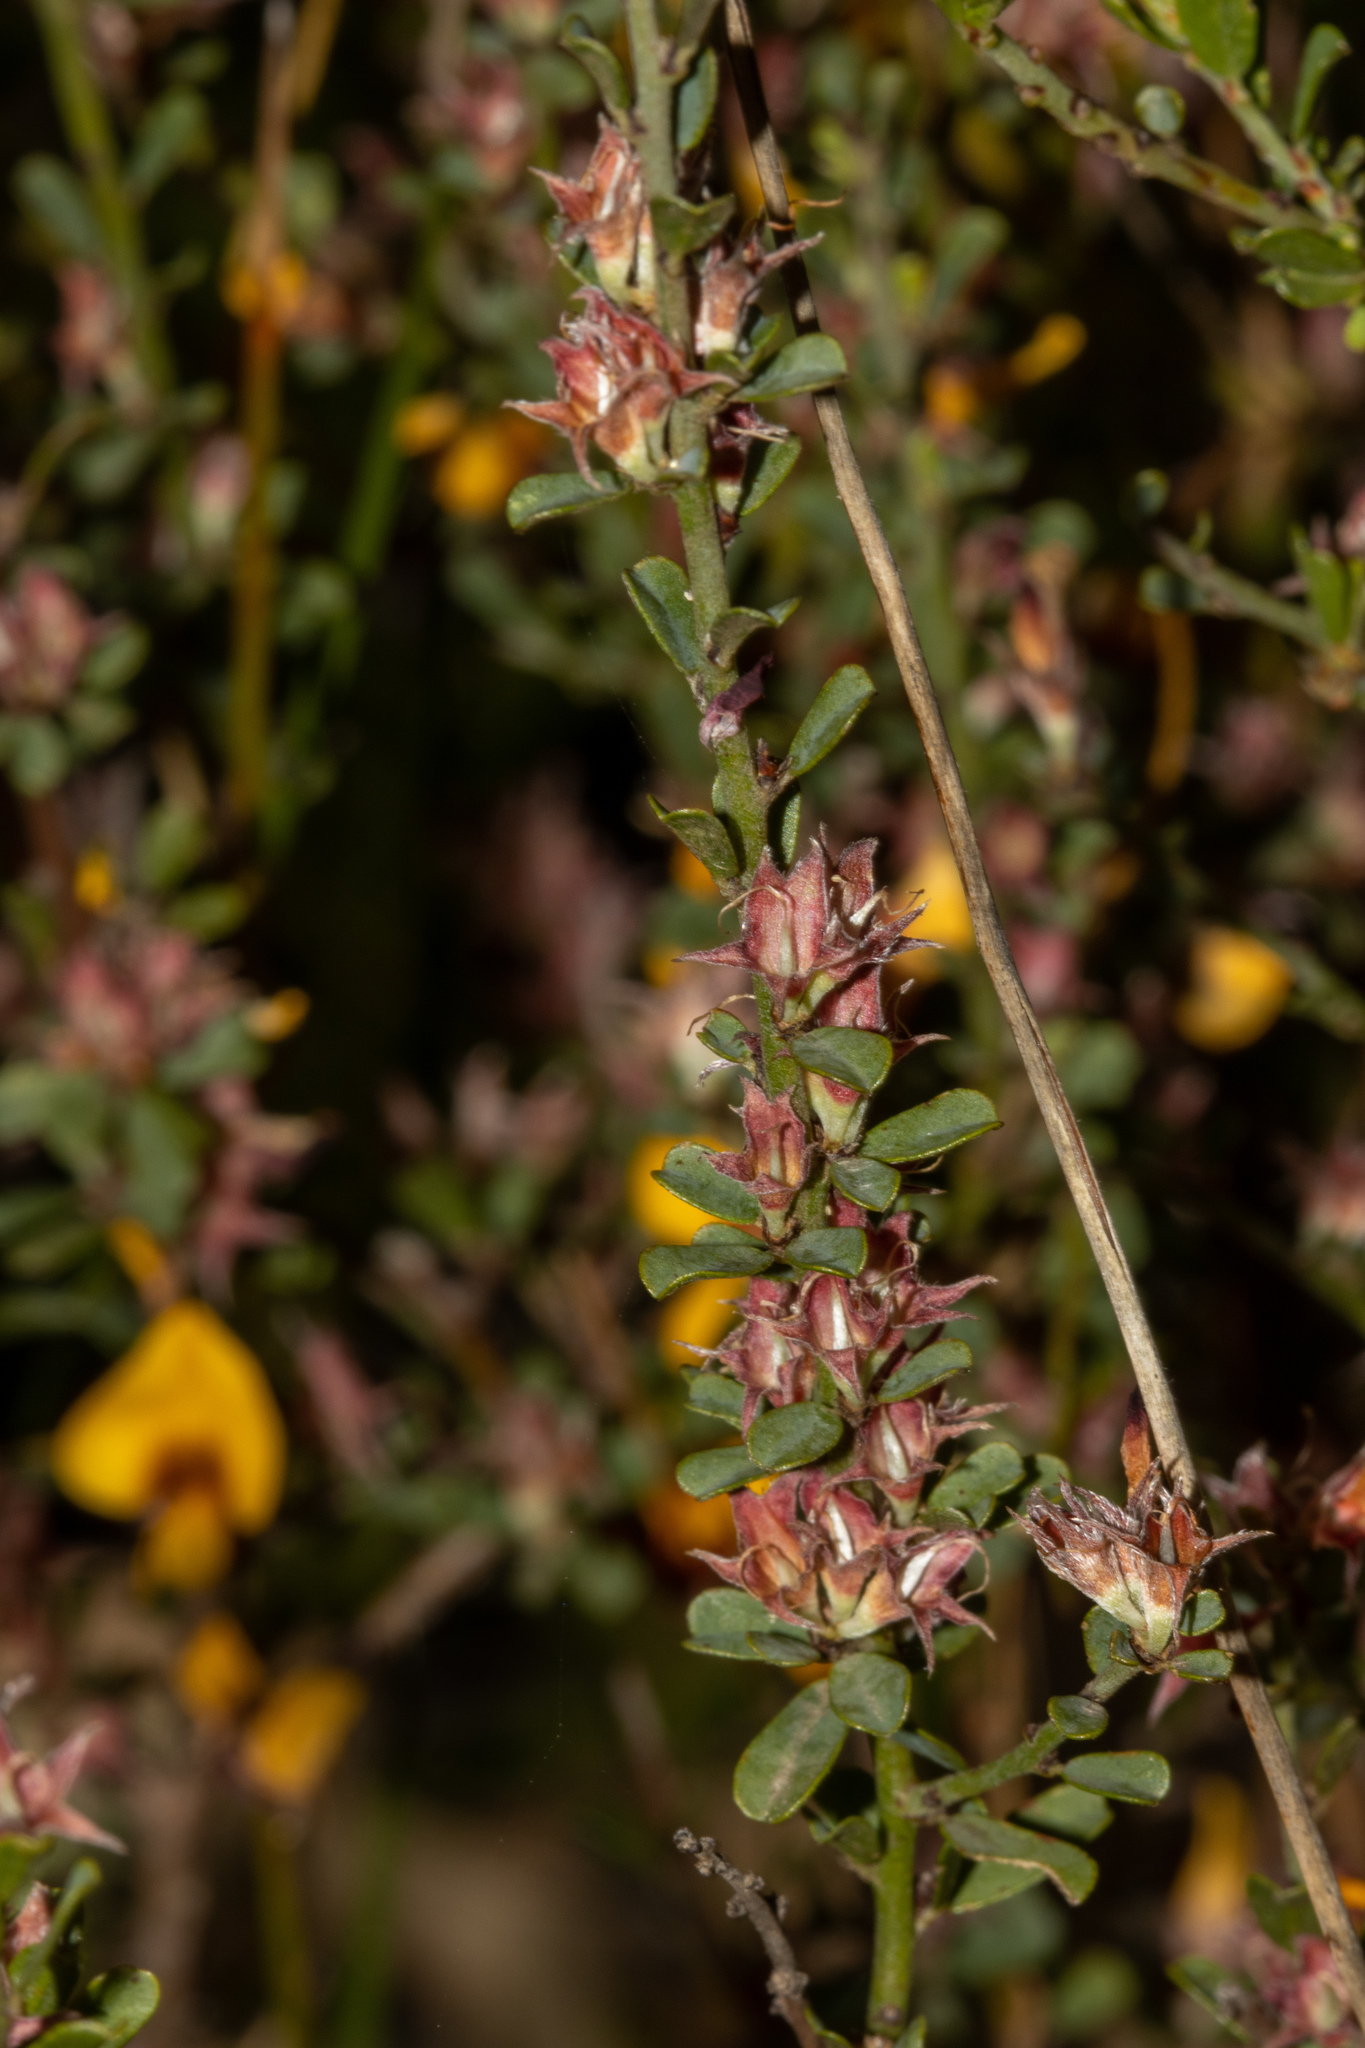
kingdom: Plantae
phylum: Tracheophyta
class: Magnoliopsida
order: Fabales
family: Fabaceae
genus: Pultenaea
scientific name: Pultenaea largiflorens
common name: Twiggy bush-pea
